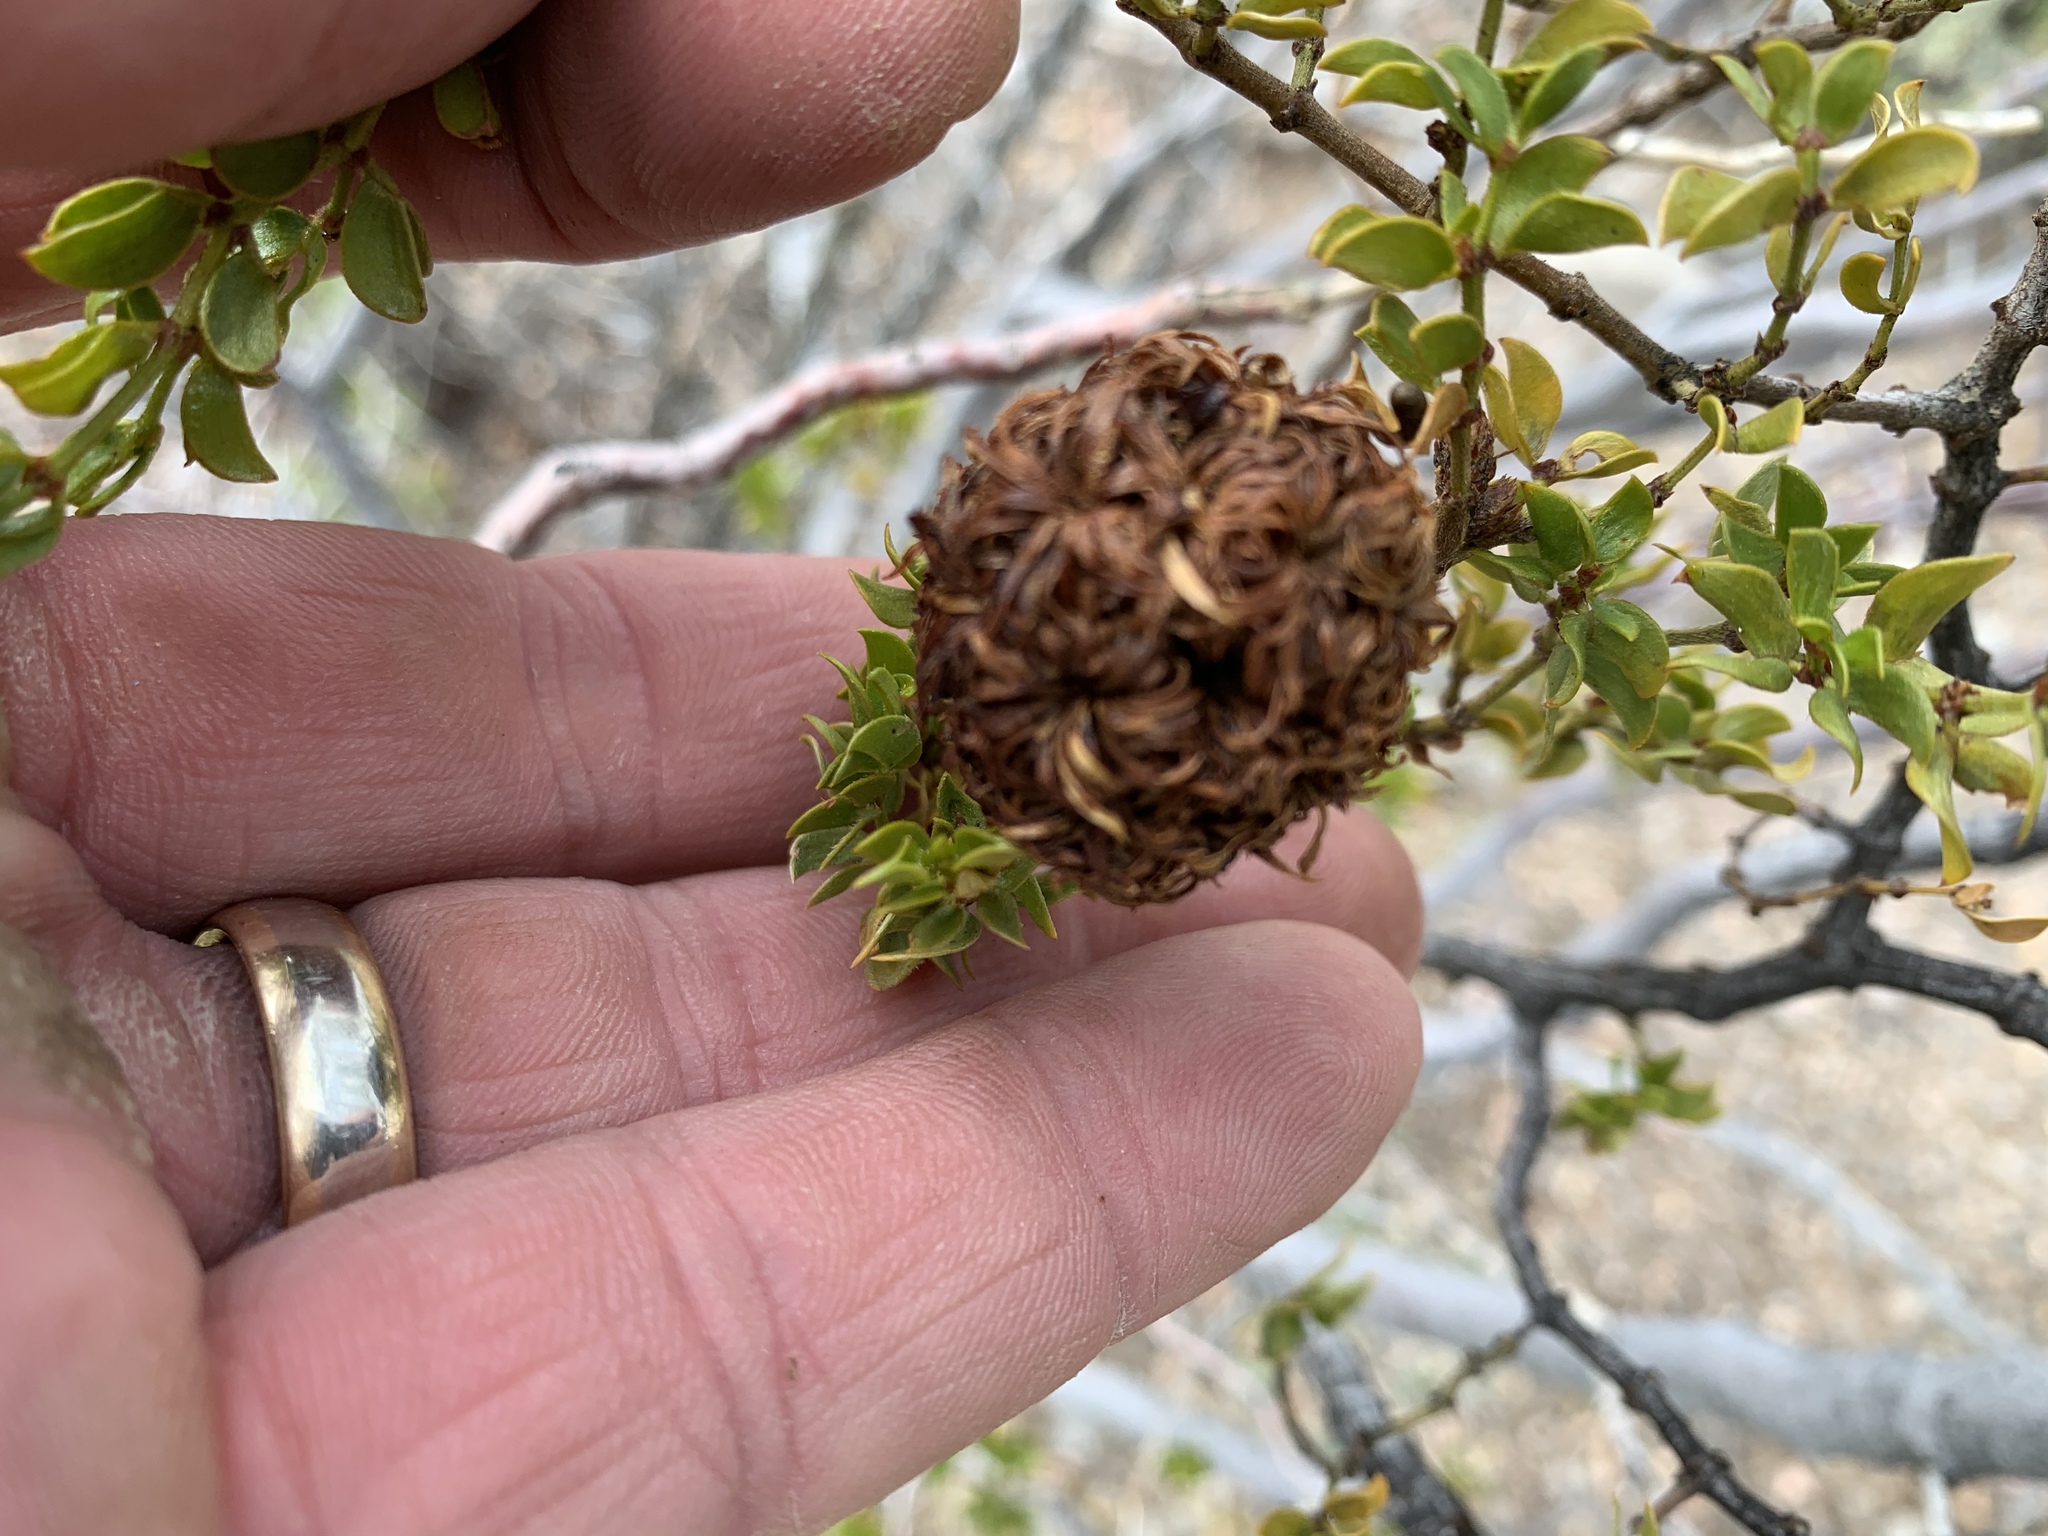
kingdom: Animalia
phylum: Arthropoda
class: Insecta
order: Diptera
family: Cecidomyiidae
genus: Asphondylia
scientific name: Asphondylia auripila
